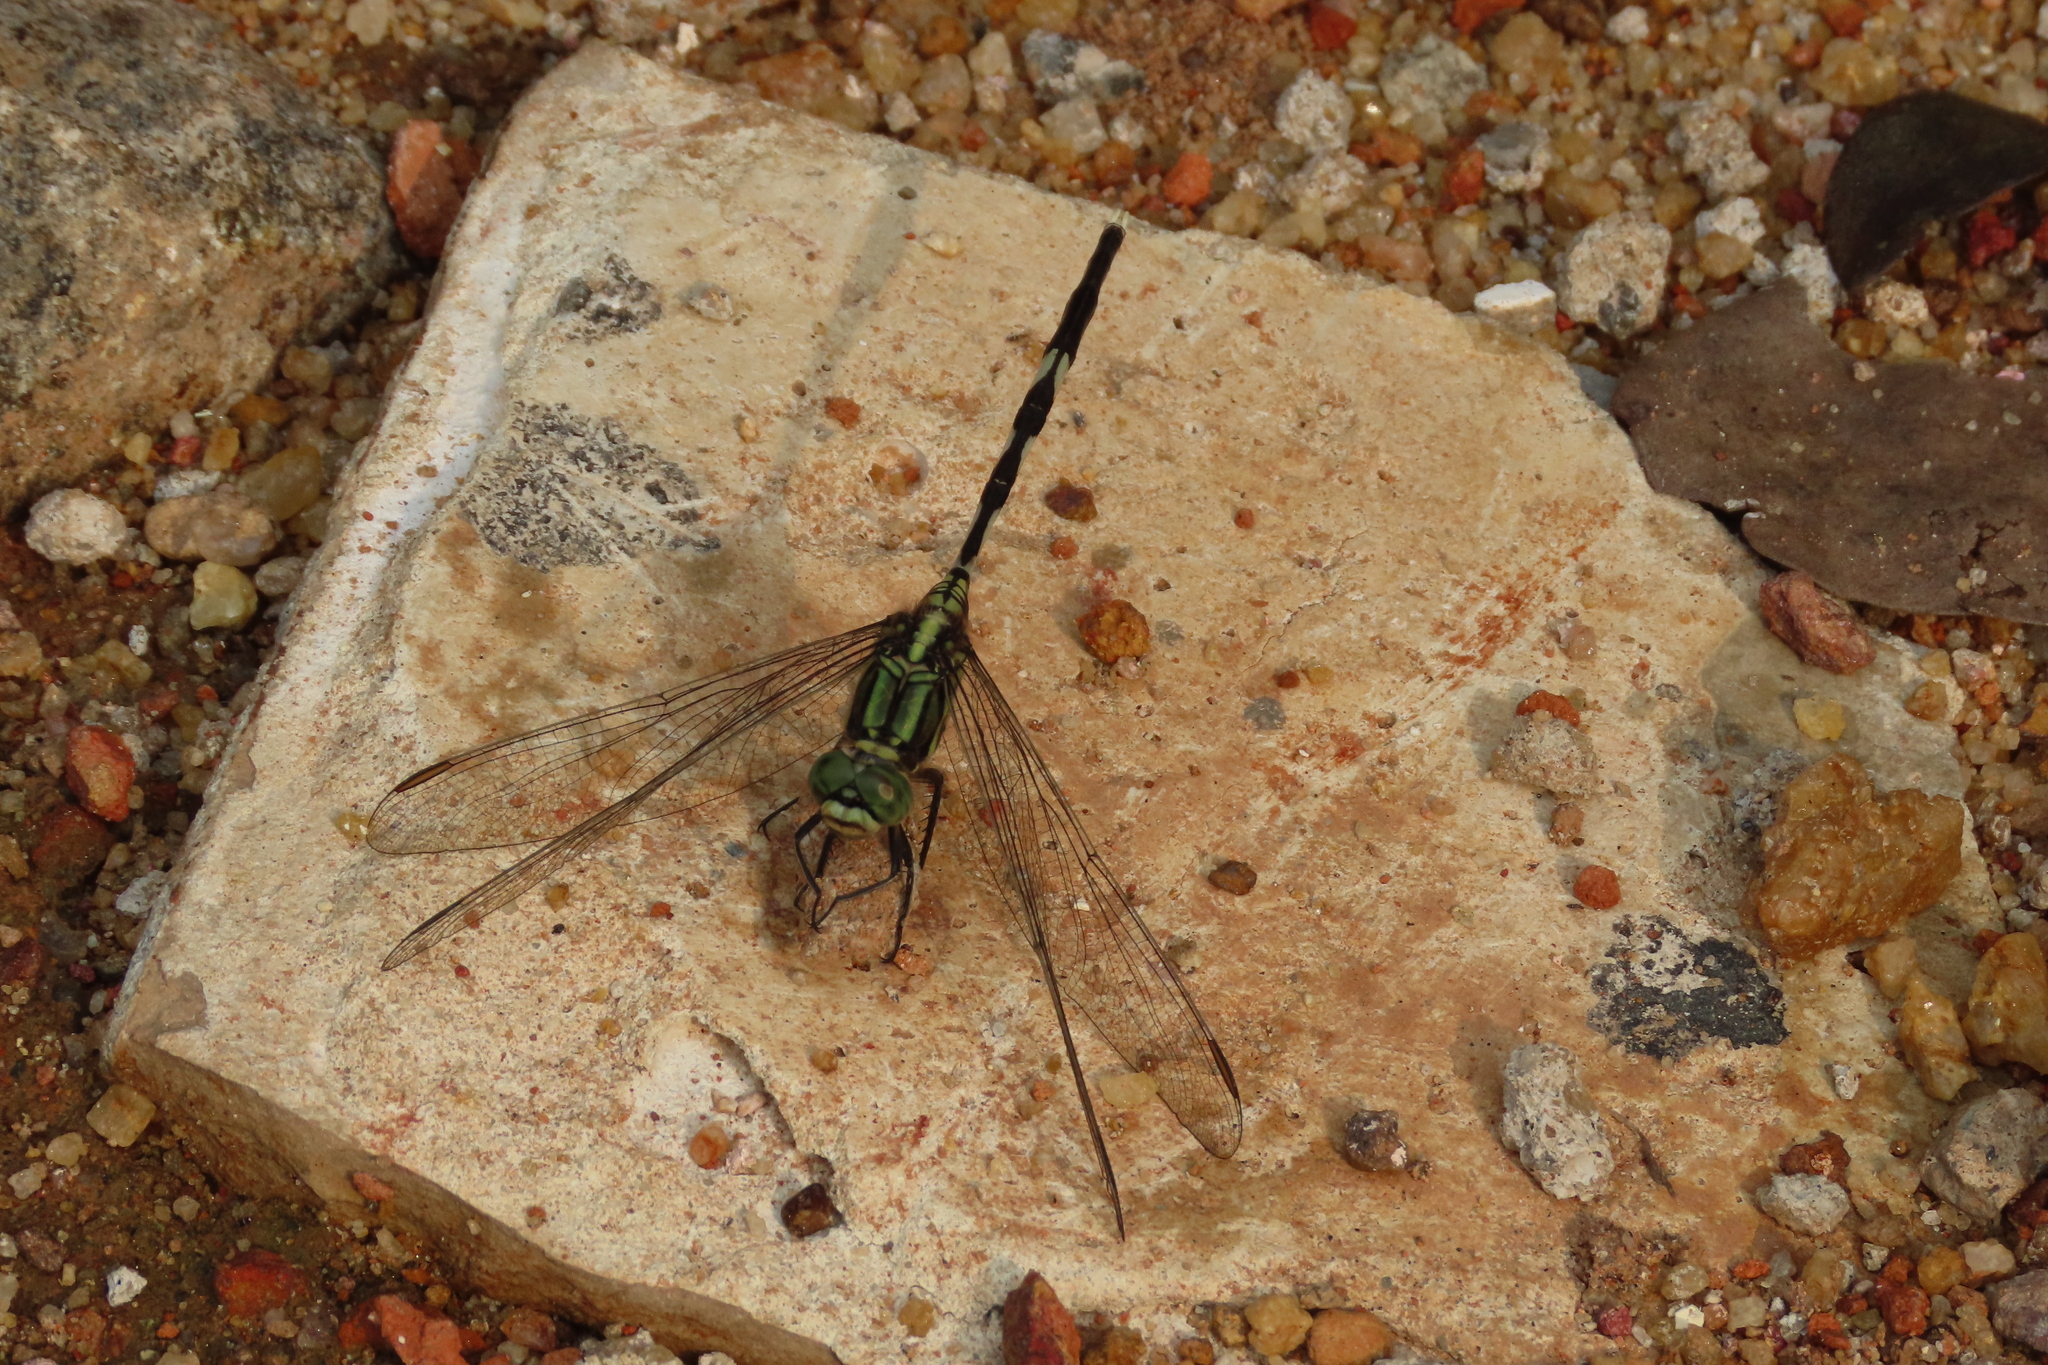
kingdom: Animalia
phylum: Arthropoda
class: Insecta
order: Odonata
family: Libellulidae
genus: Orthetrum
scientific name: Orthetrum sabina
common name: Slender skimmer
